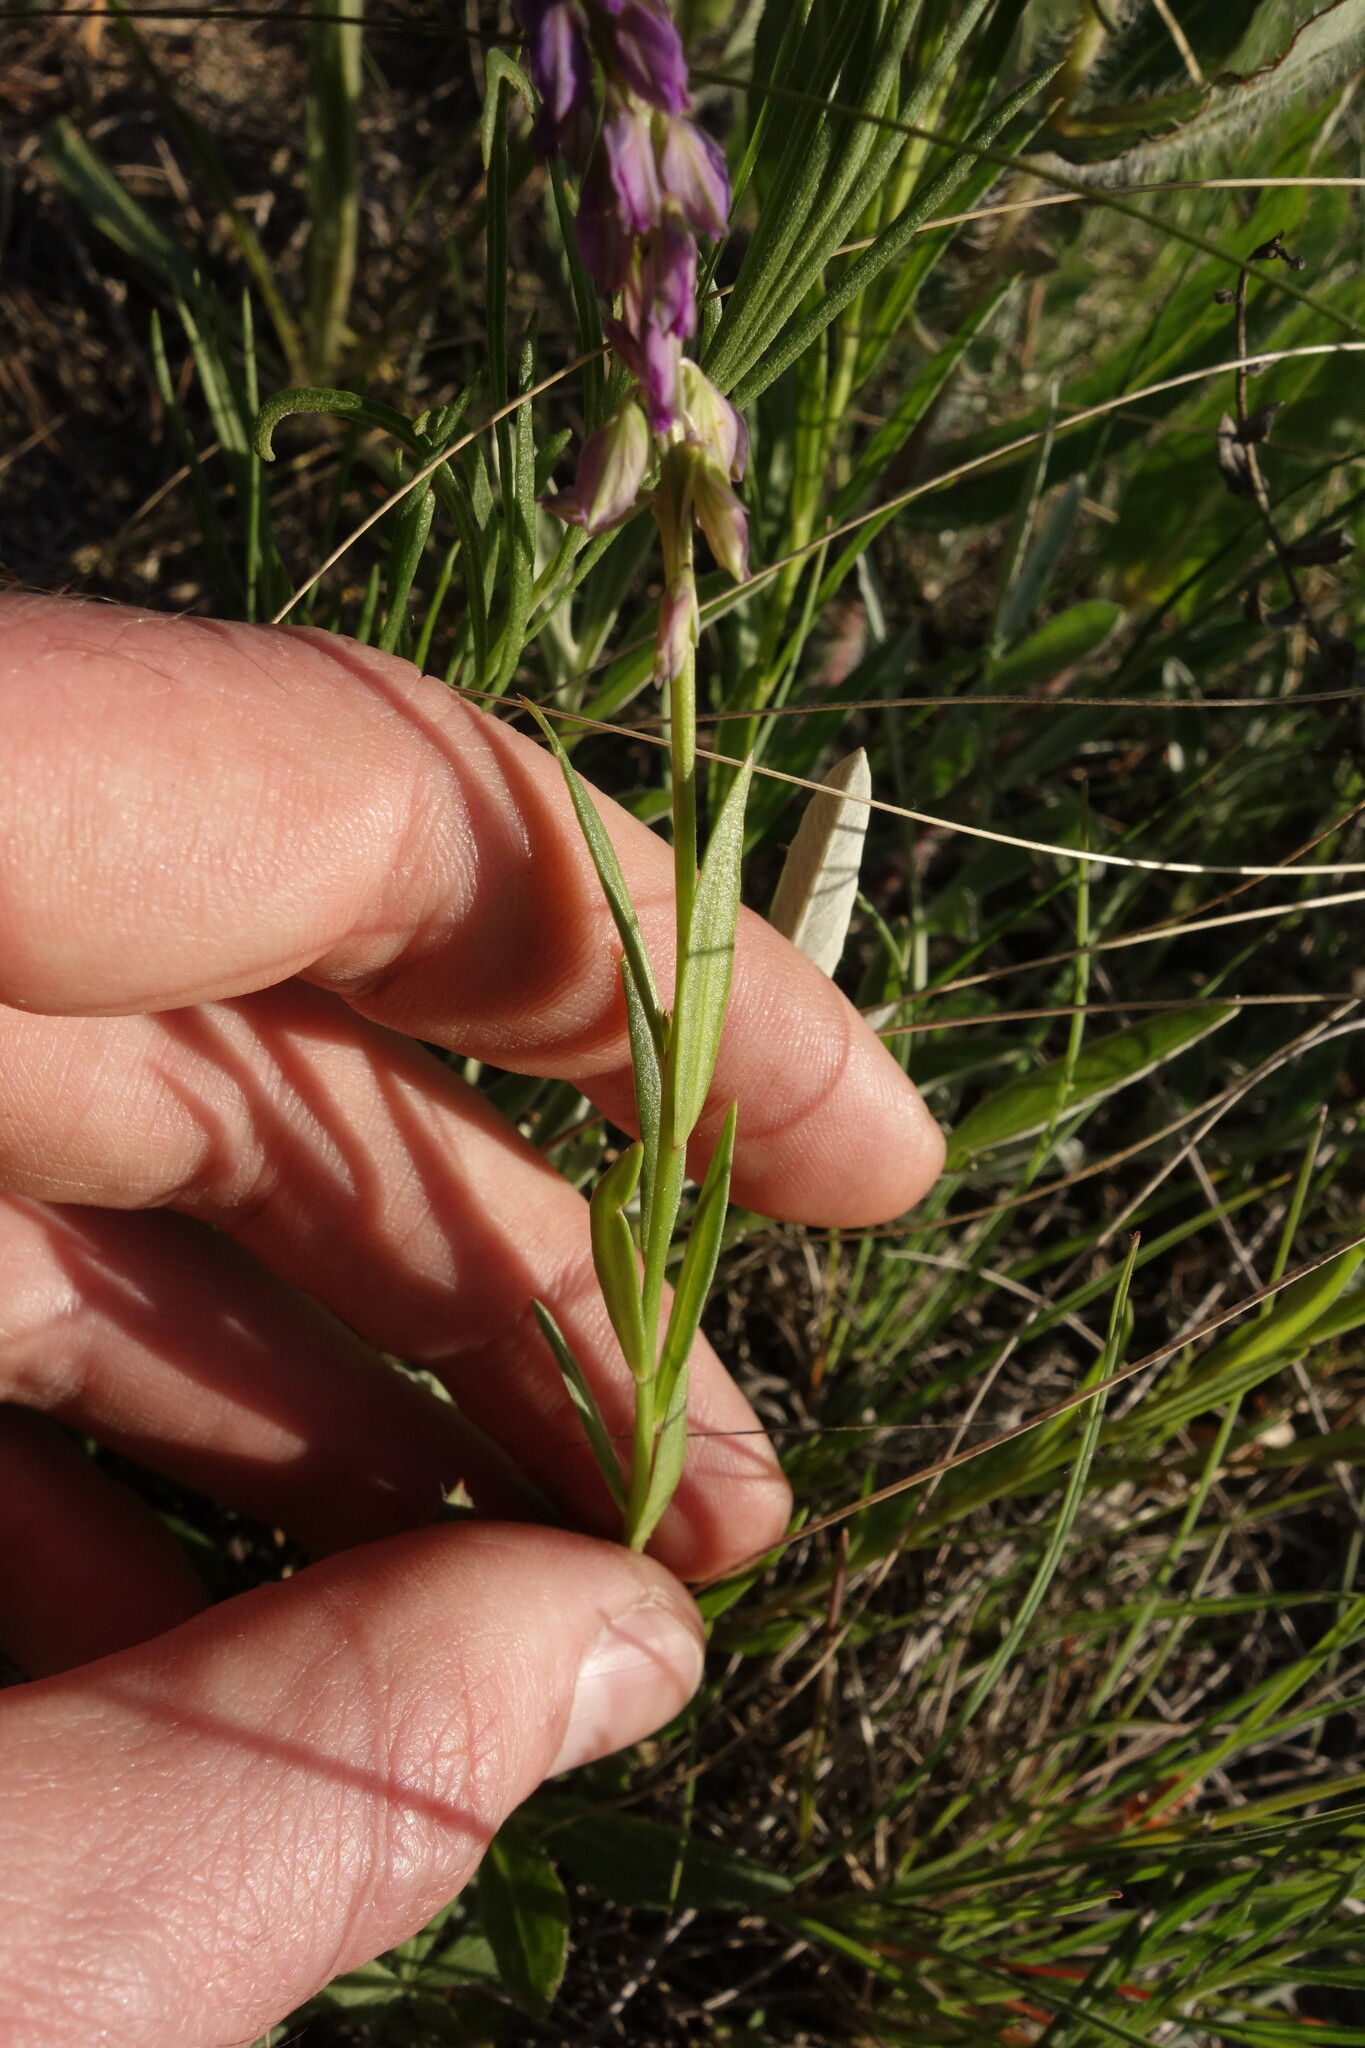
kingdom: Plantae
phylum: Tracheophyta
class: Magnoliopsida
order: Fabales
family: Polygalaceae
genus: Polygala
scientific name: Polygala comosa
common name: Tufted milkwort
